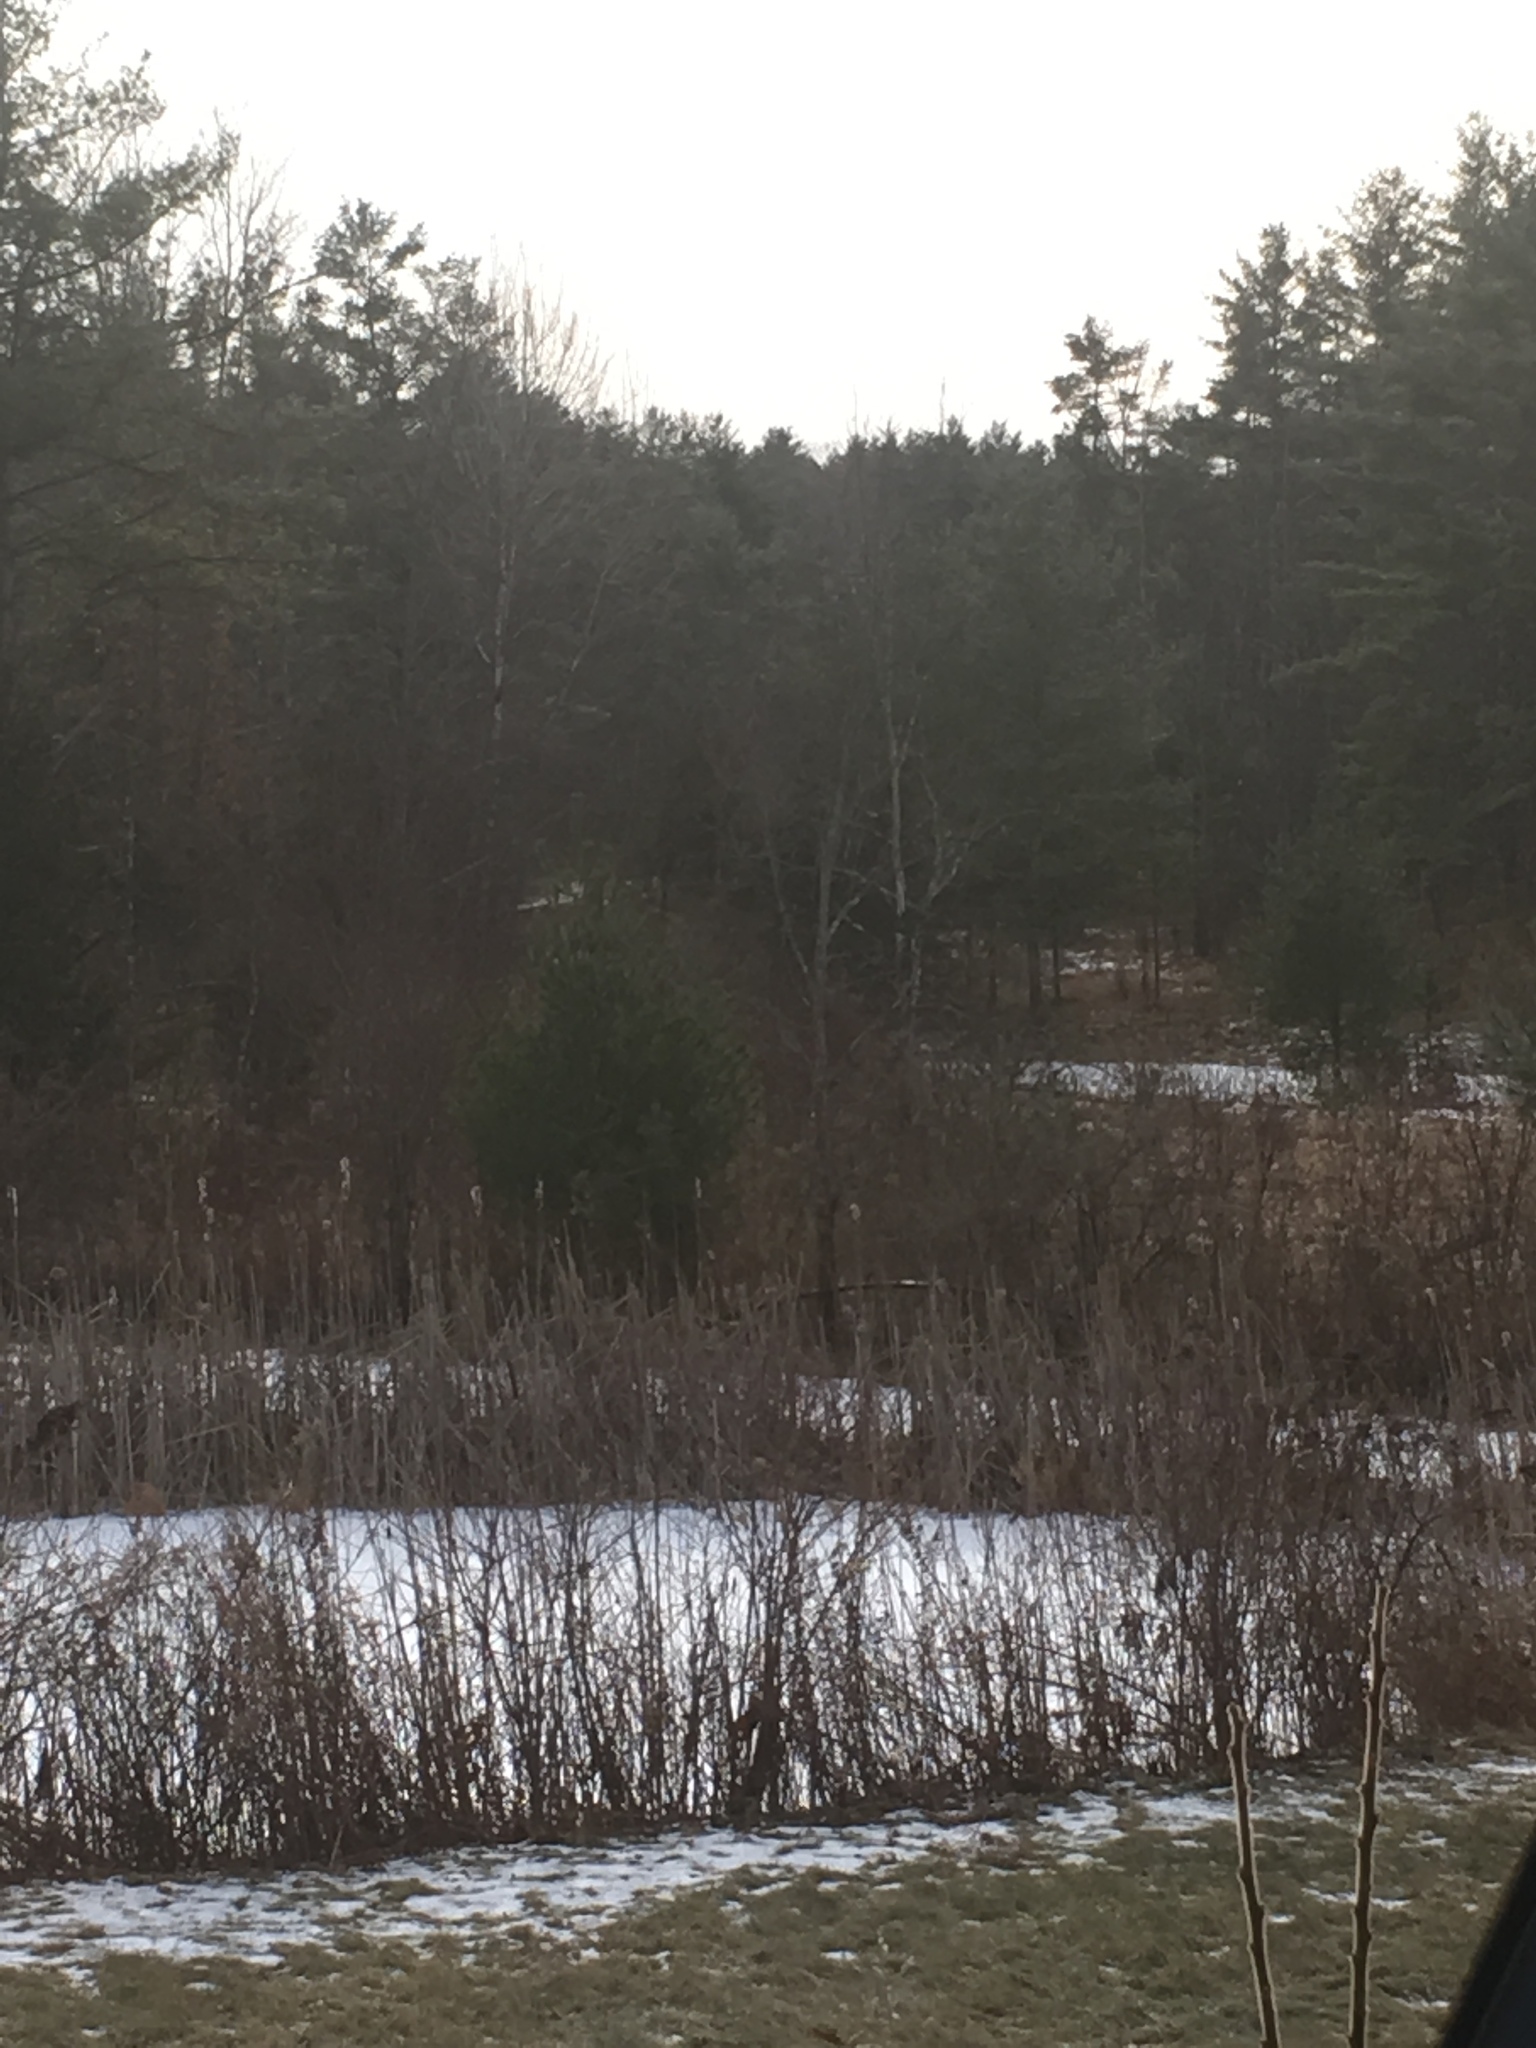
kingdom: Plantae
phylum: Tracheophyta
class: Pinopsida
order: Pinales
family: Pinaceae
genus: Pinus
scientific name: Pinus strobus
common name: Weymouth pine
